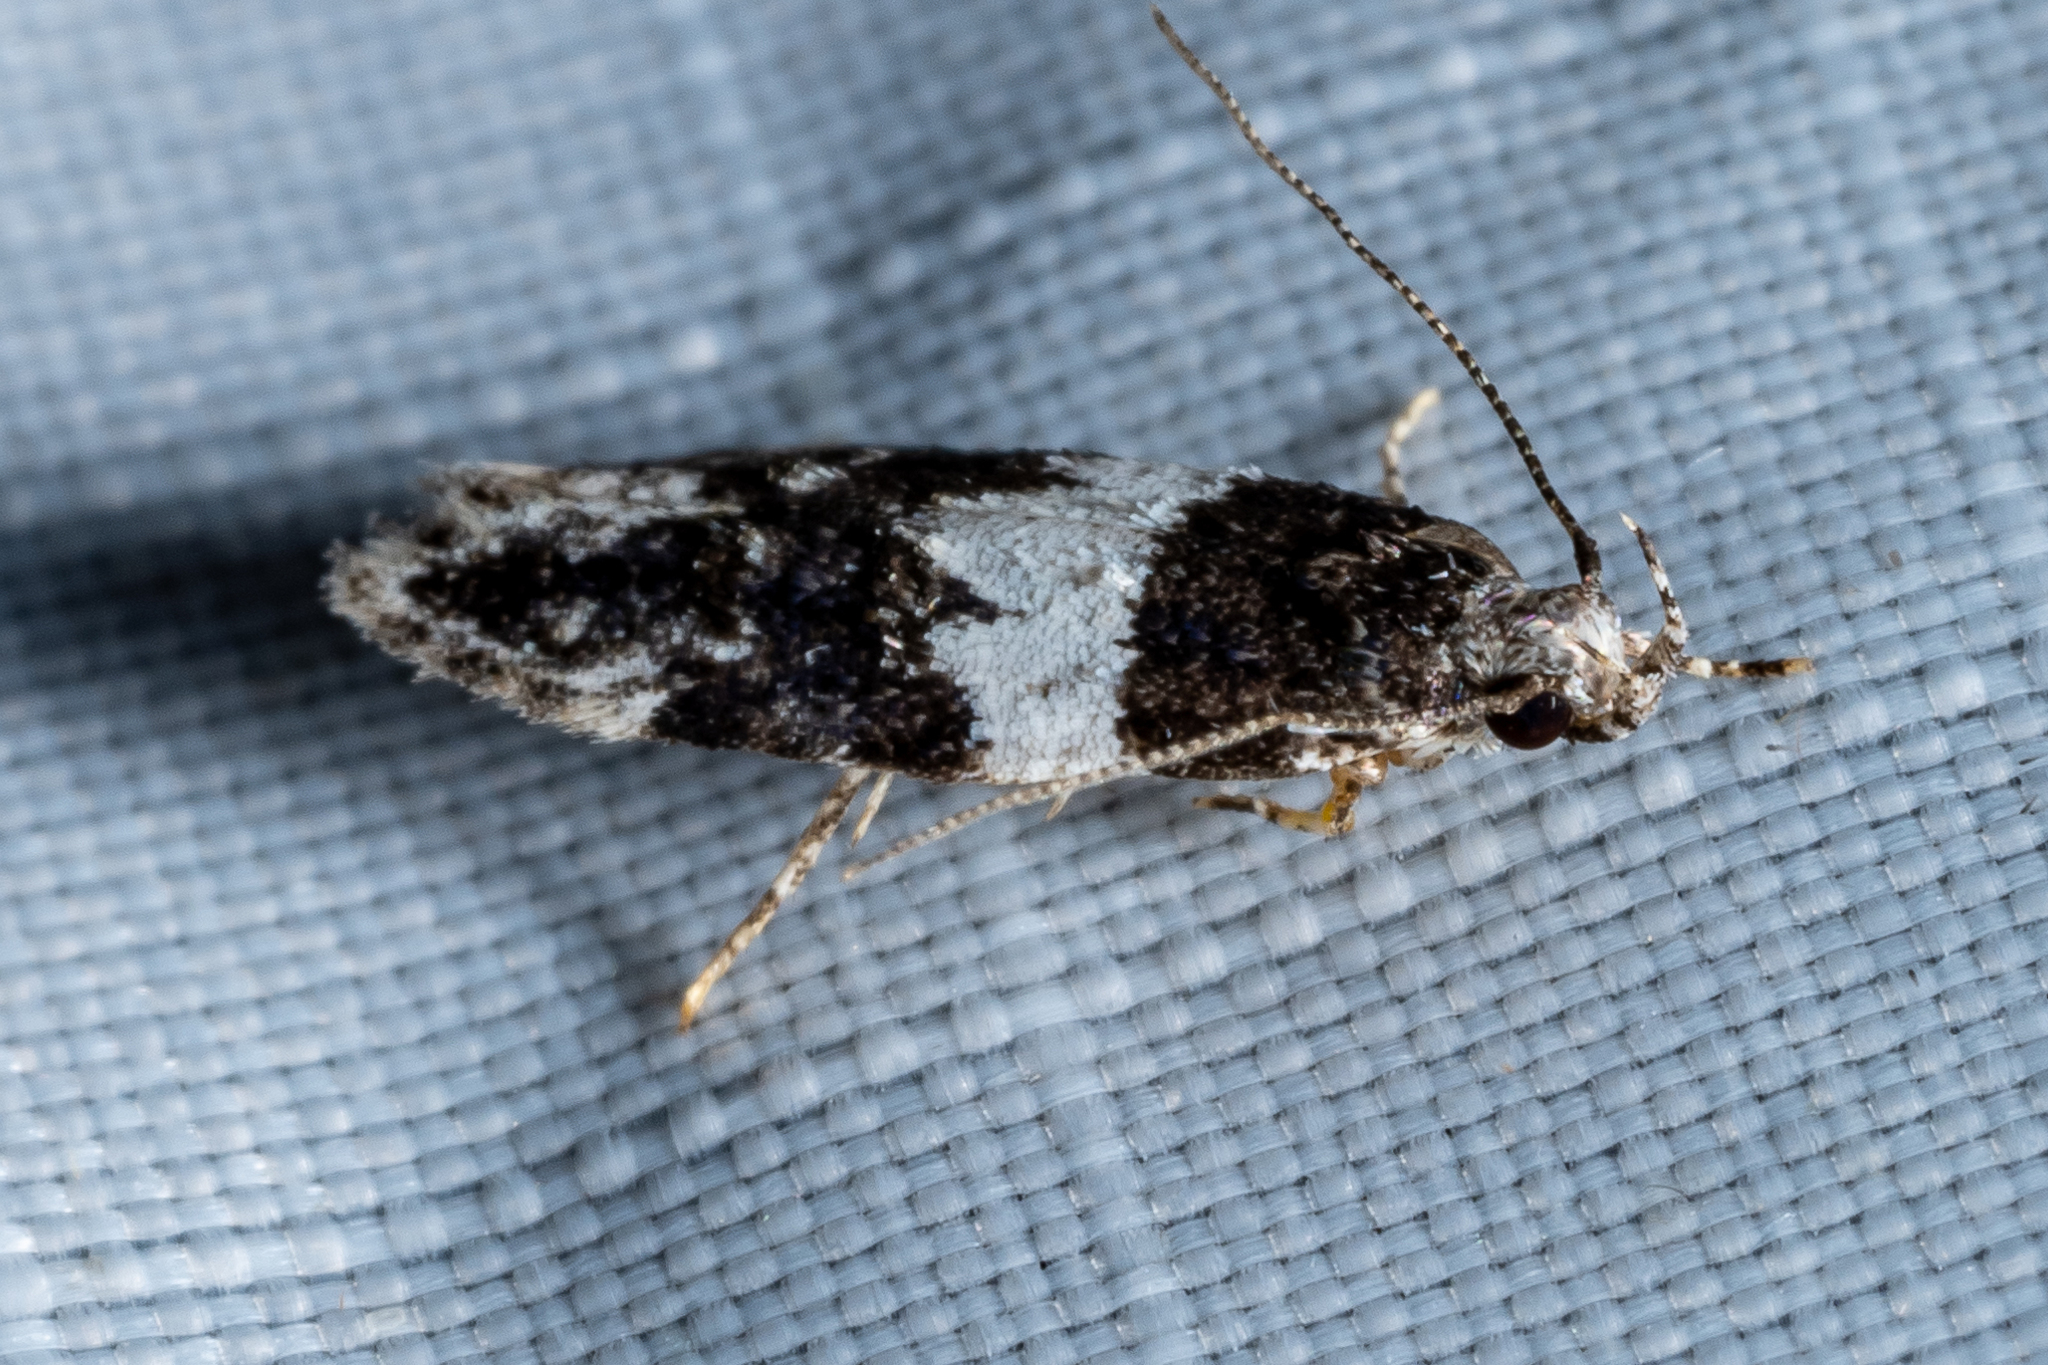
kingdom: Animalia
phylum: Arthropoda
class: Insecta
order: Lepidoptera
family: Gelechiidae
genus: Pubitelphusa
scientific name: Pubitelphusa latifasciella
